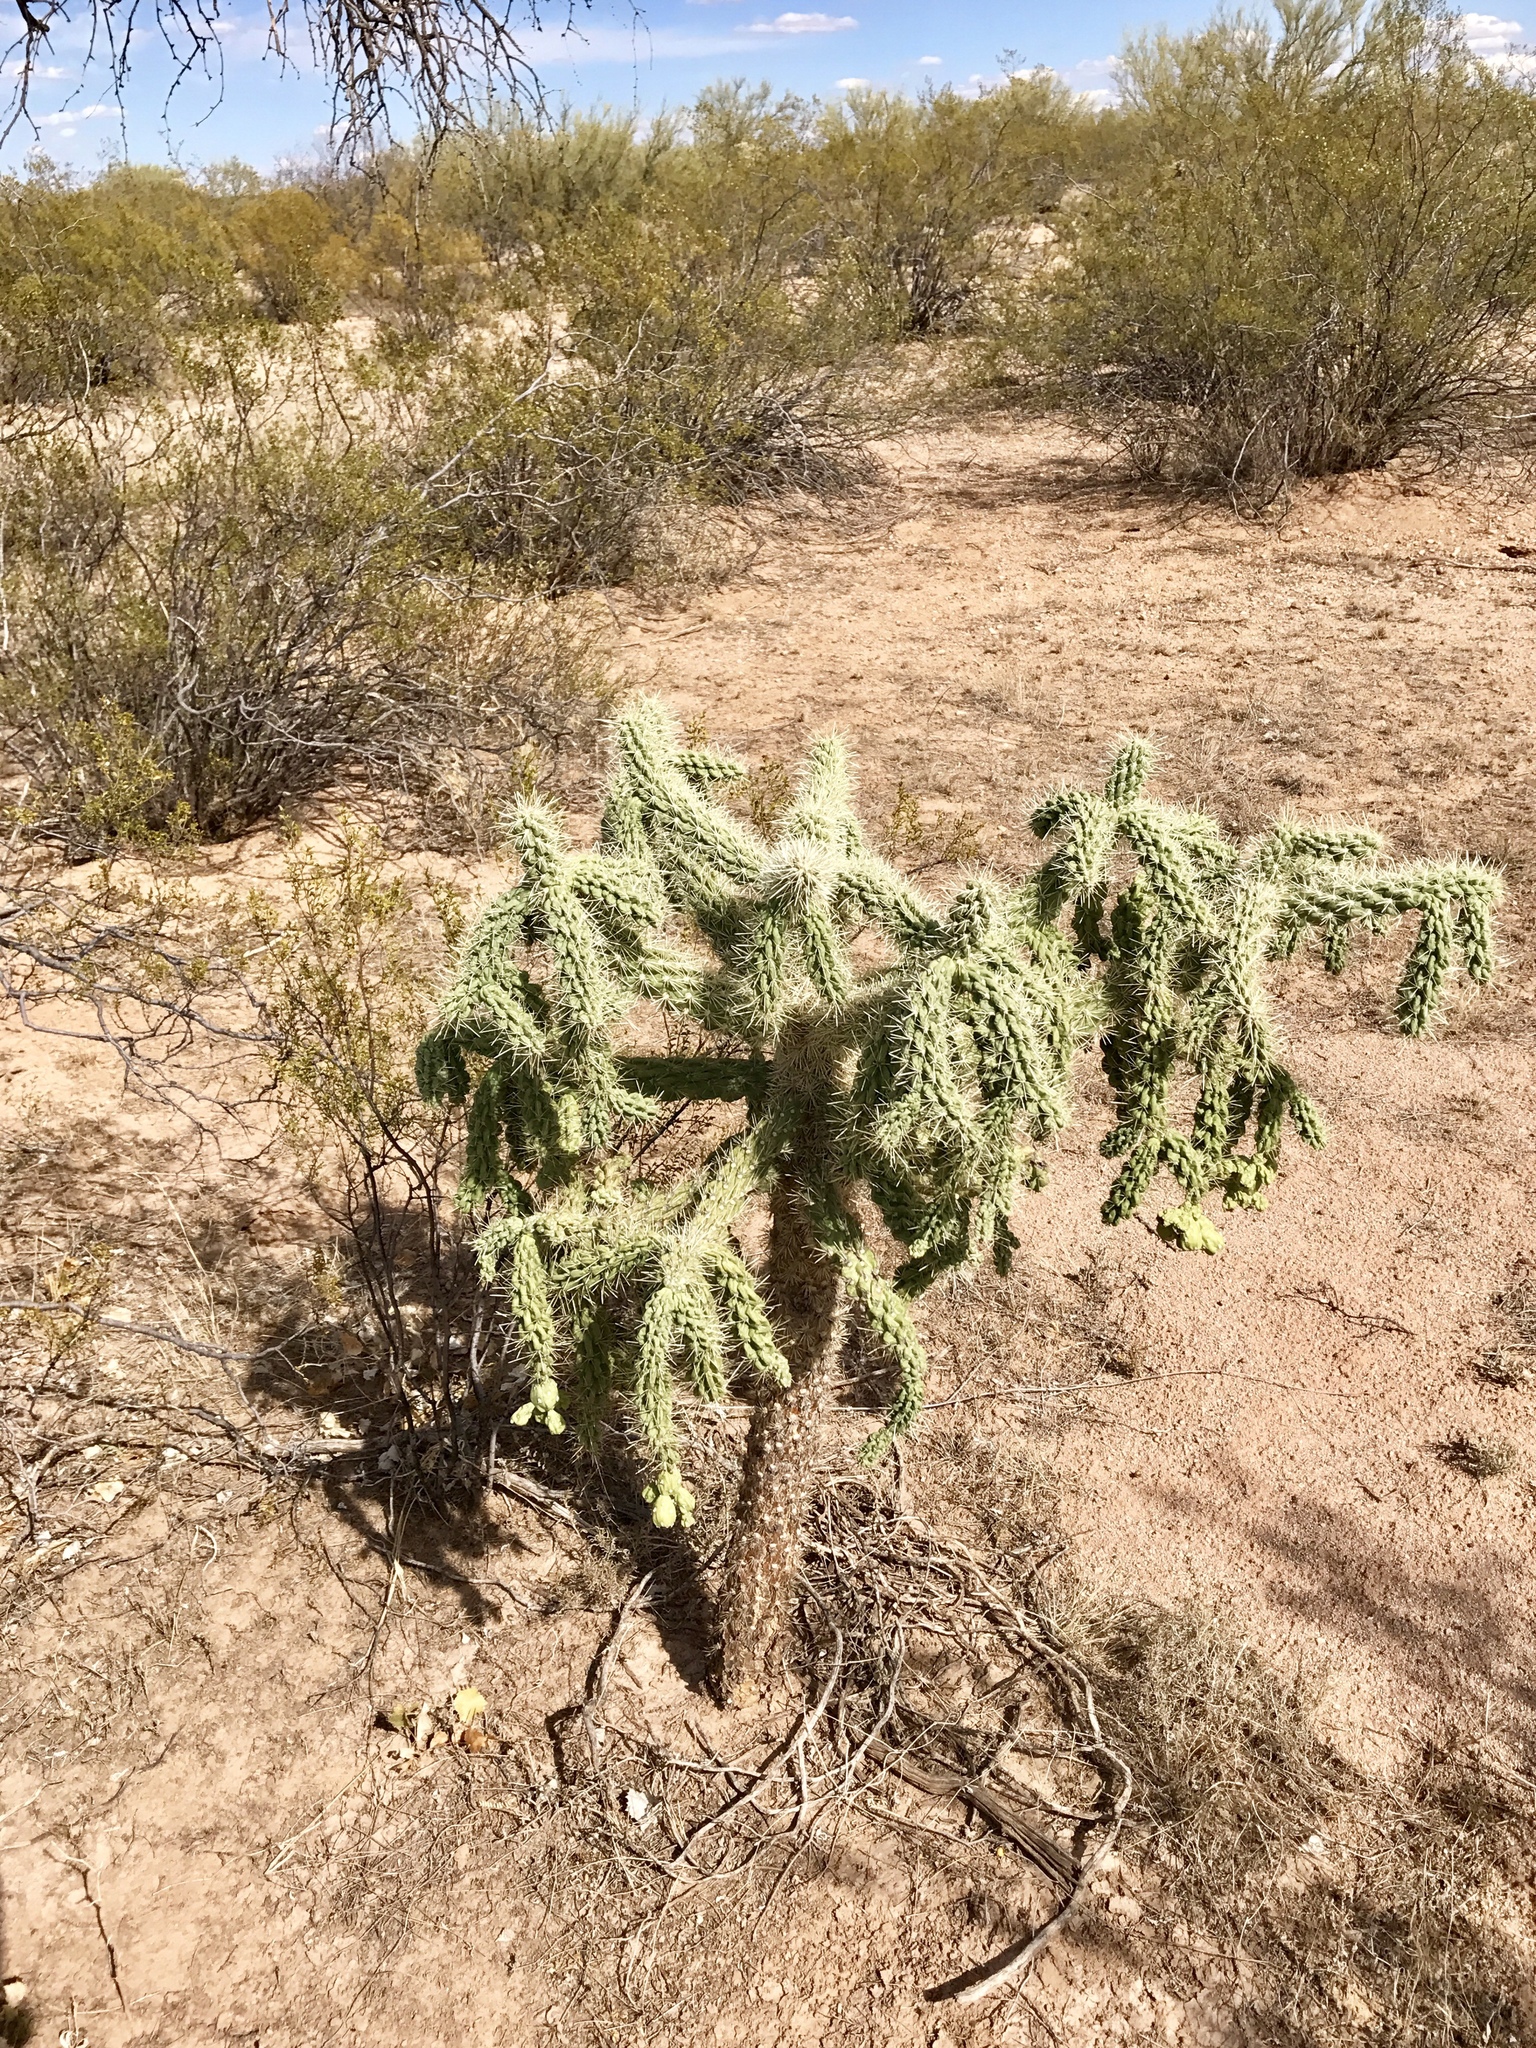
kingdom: Plantae
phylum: Tracheophyta
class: Magnoliopsida
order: Caryophyllales
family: Cactaceae
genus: Cylindropuntia
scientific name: Cylindropuntia fulgida
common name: Jumping cholla
